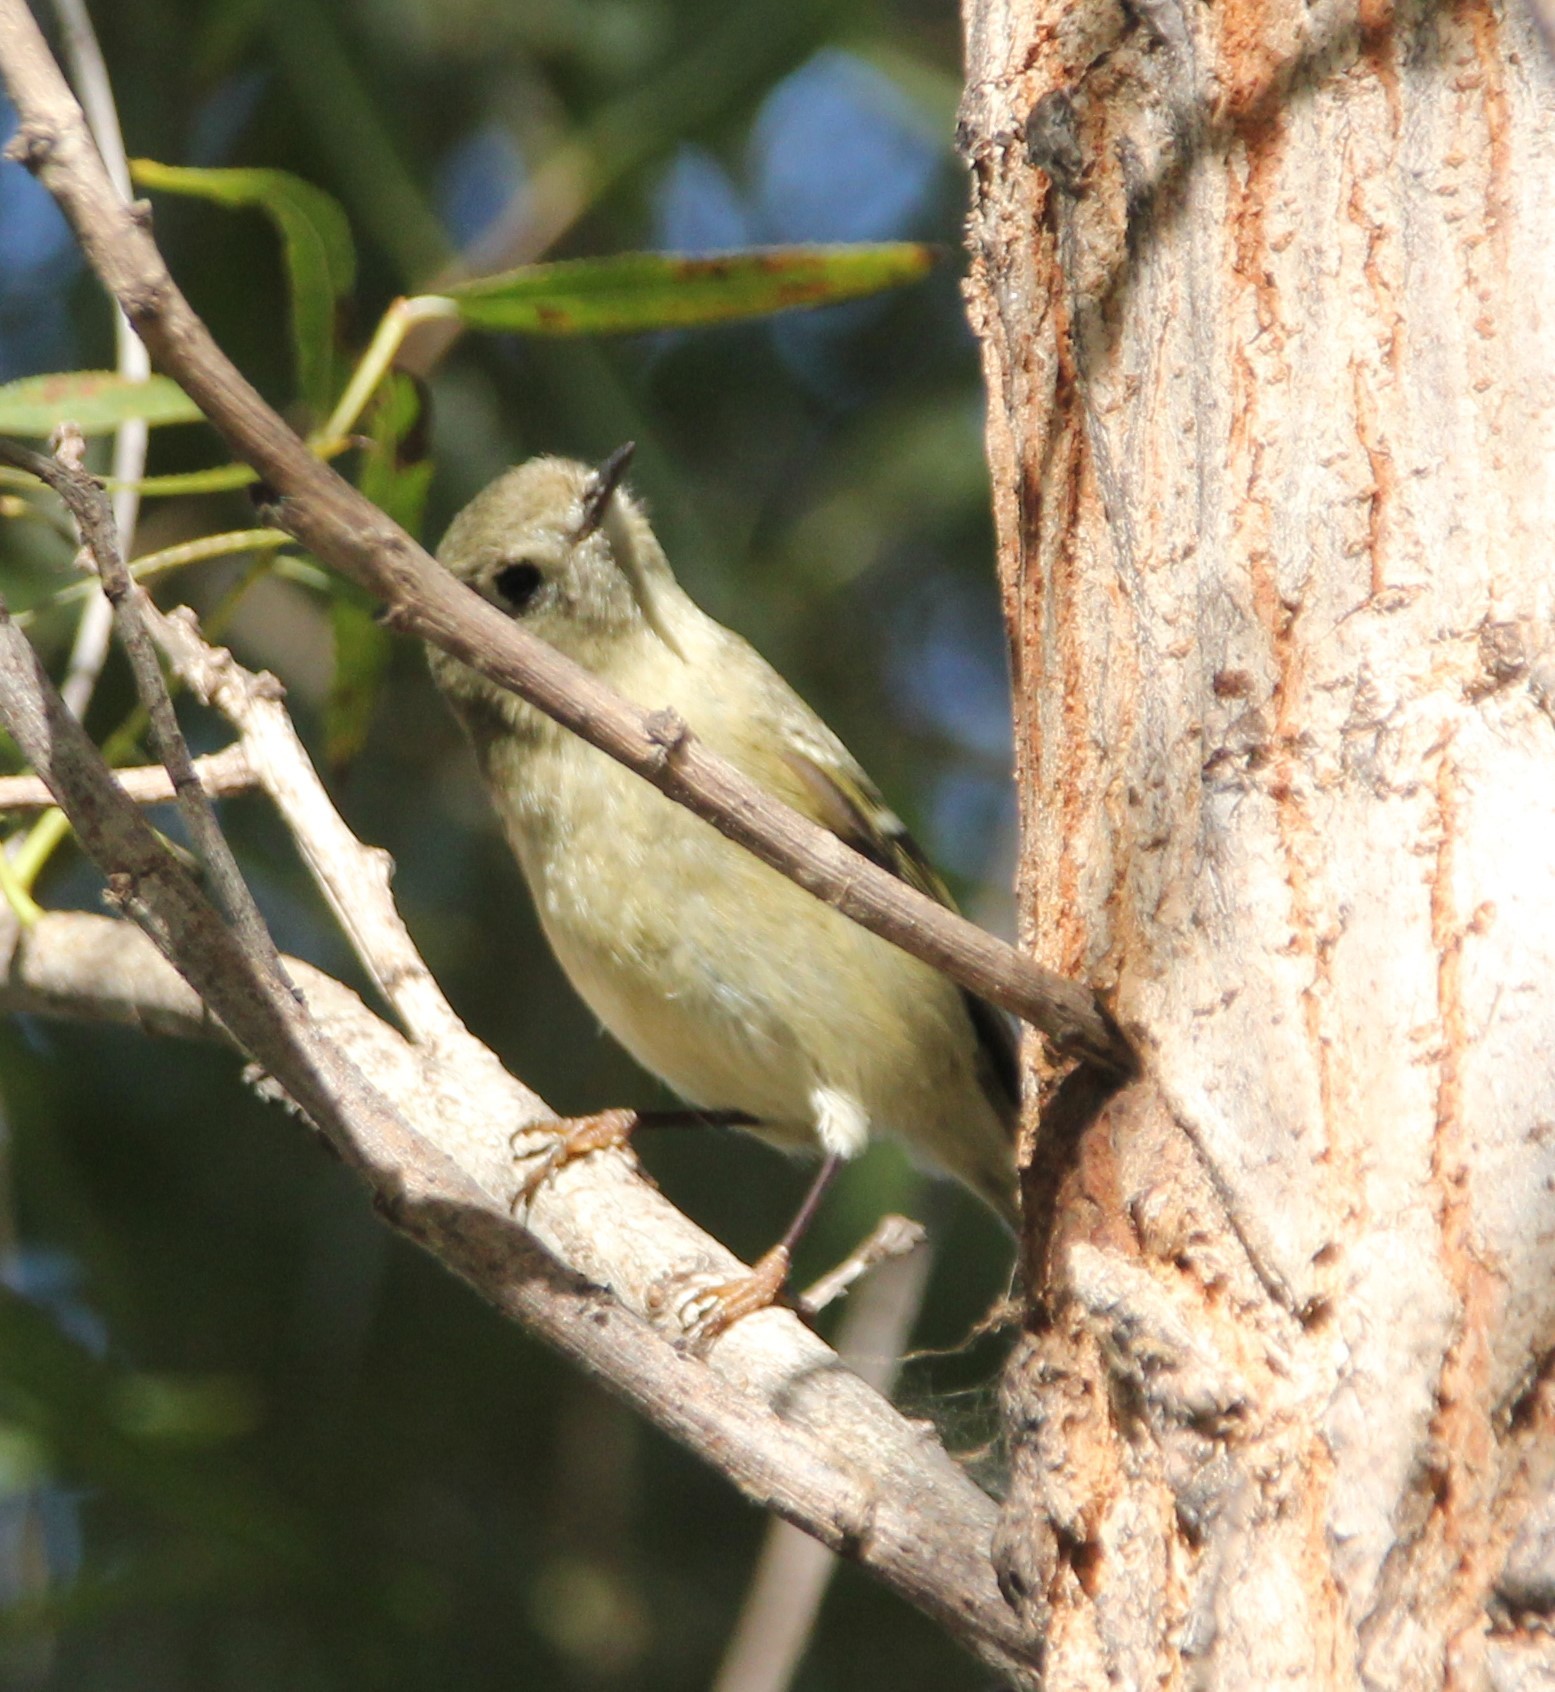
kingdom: Animalia
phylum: Chordata
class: Aves
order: Passeriformes
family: Regulidae
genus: Regulus
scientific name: Regulus calendula
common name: Ruby-crowned kinglet
